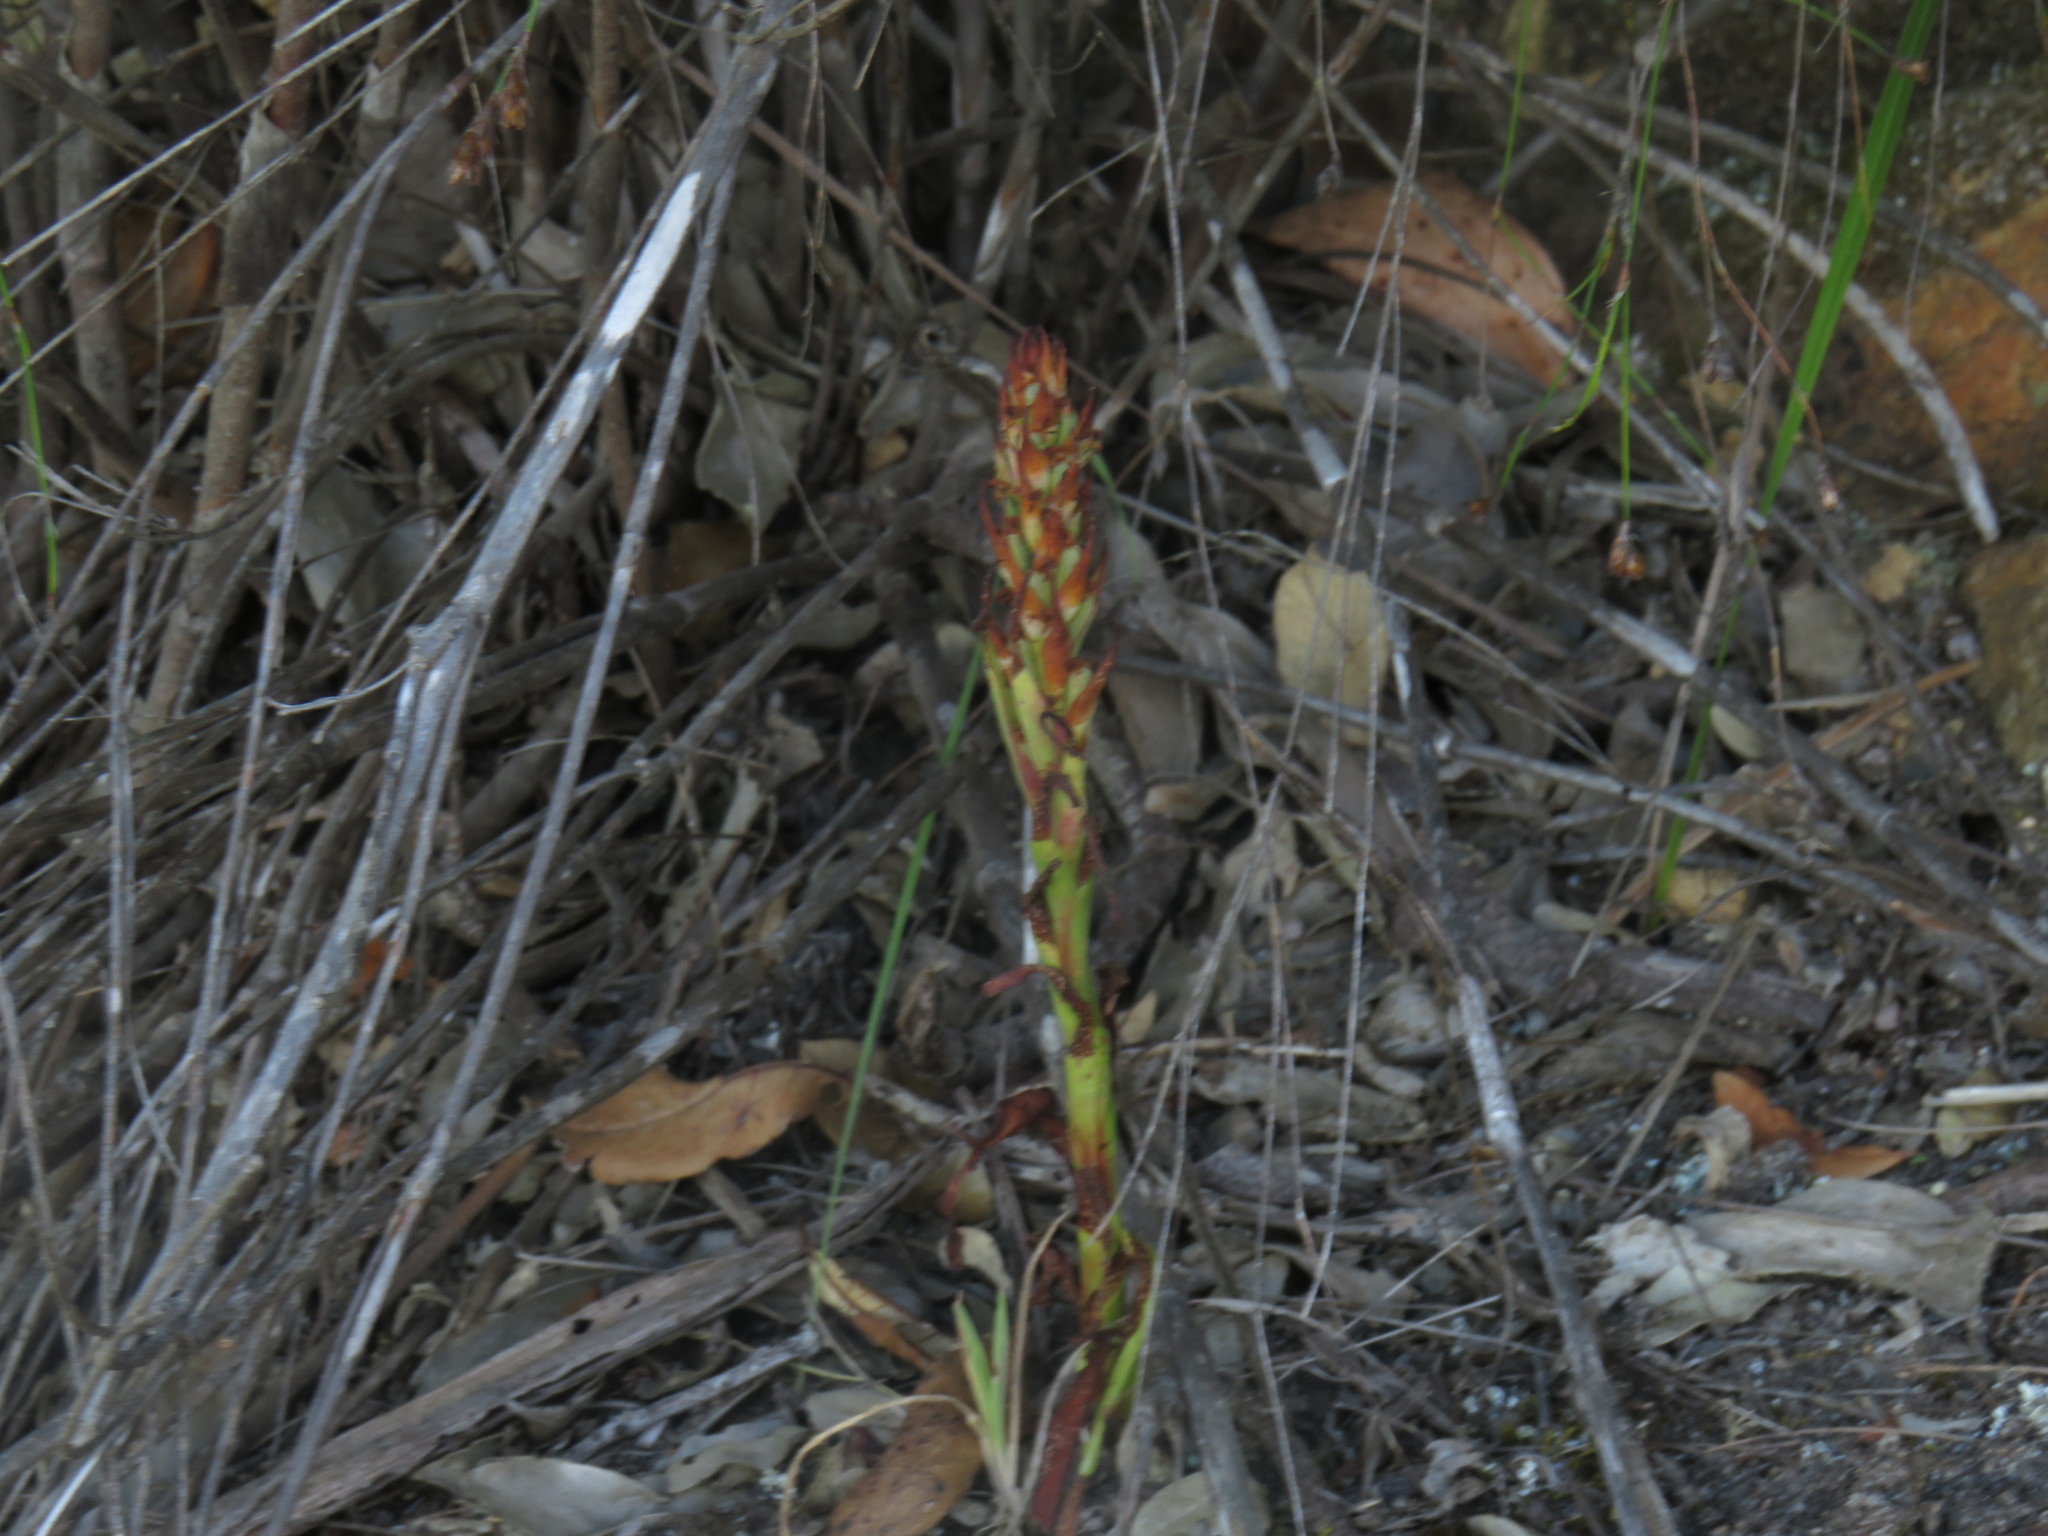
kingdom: Plantae
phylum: Tracheophyta
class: Liliopsida
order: Asparagales
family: Orchidaceae
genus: Disa
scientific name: Disa bracteata
